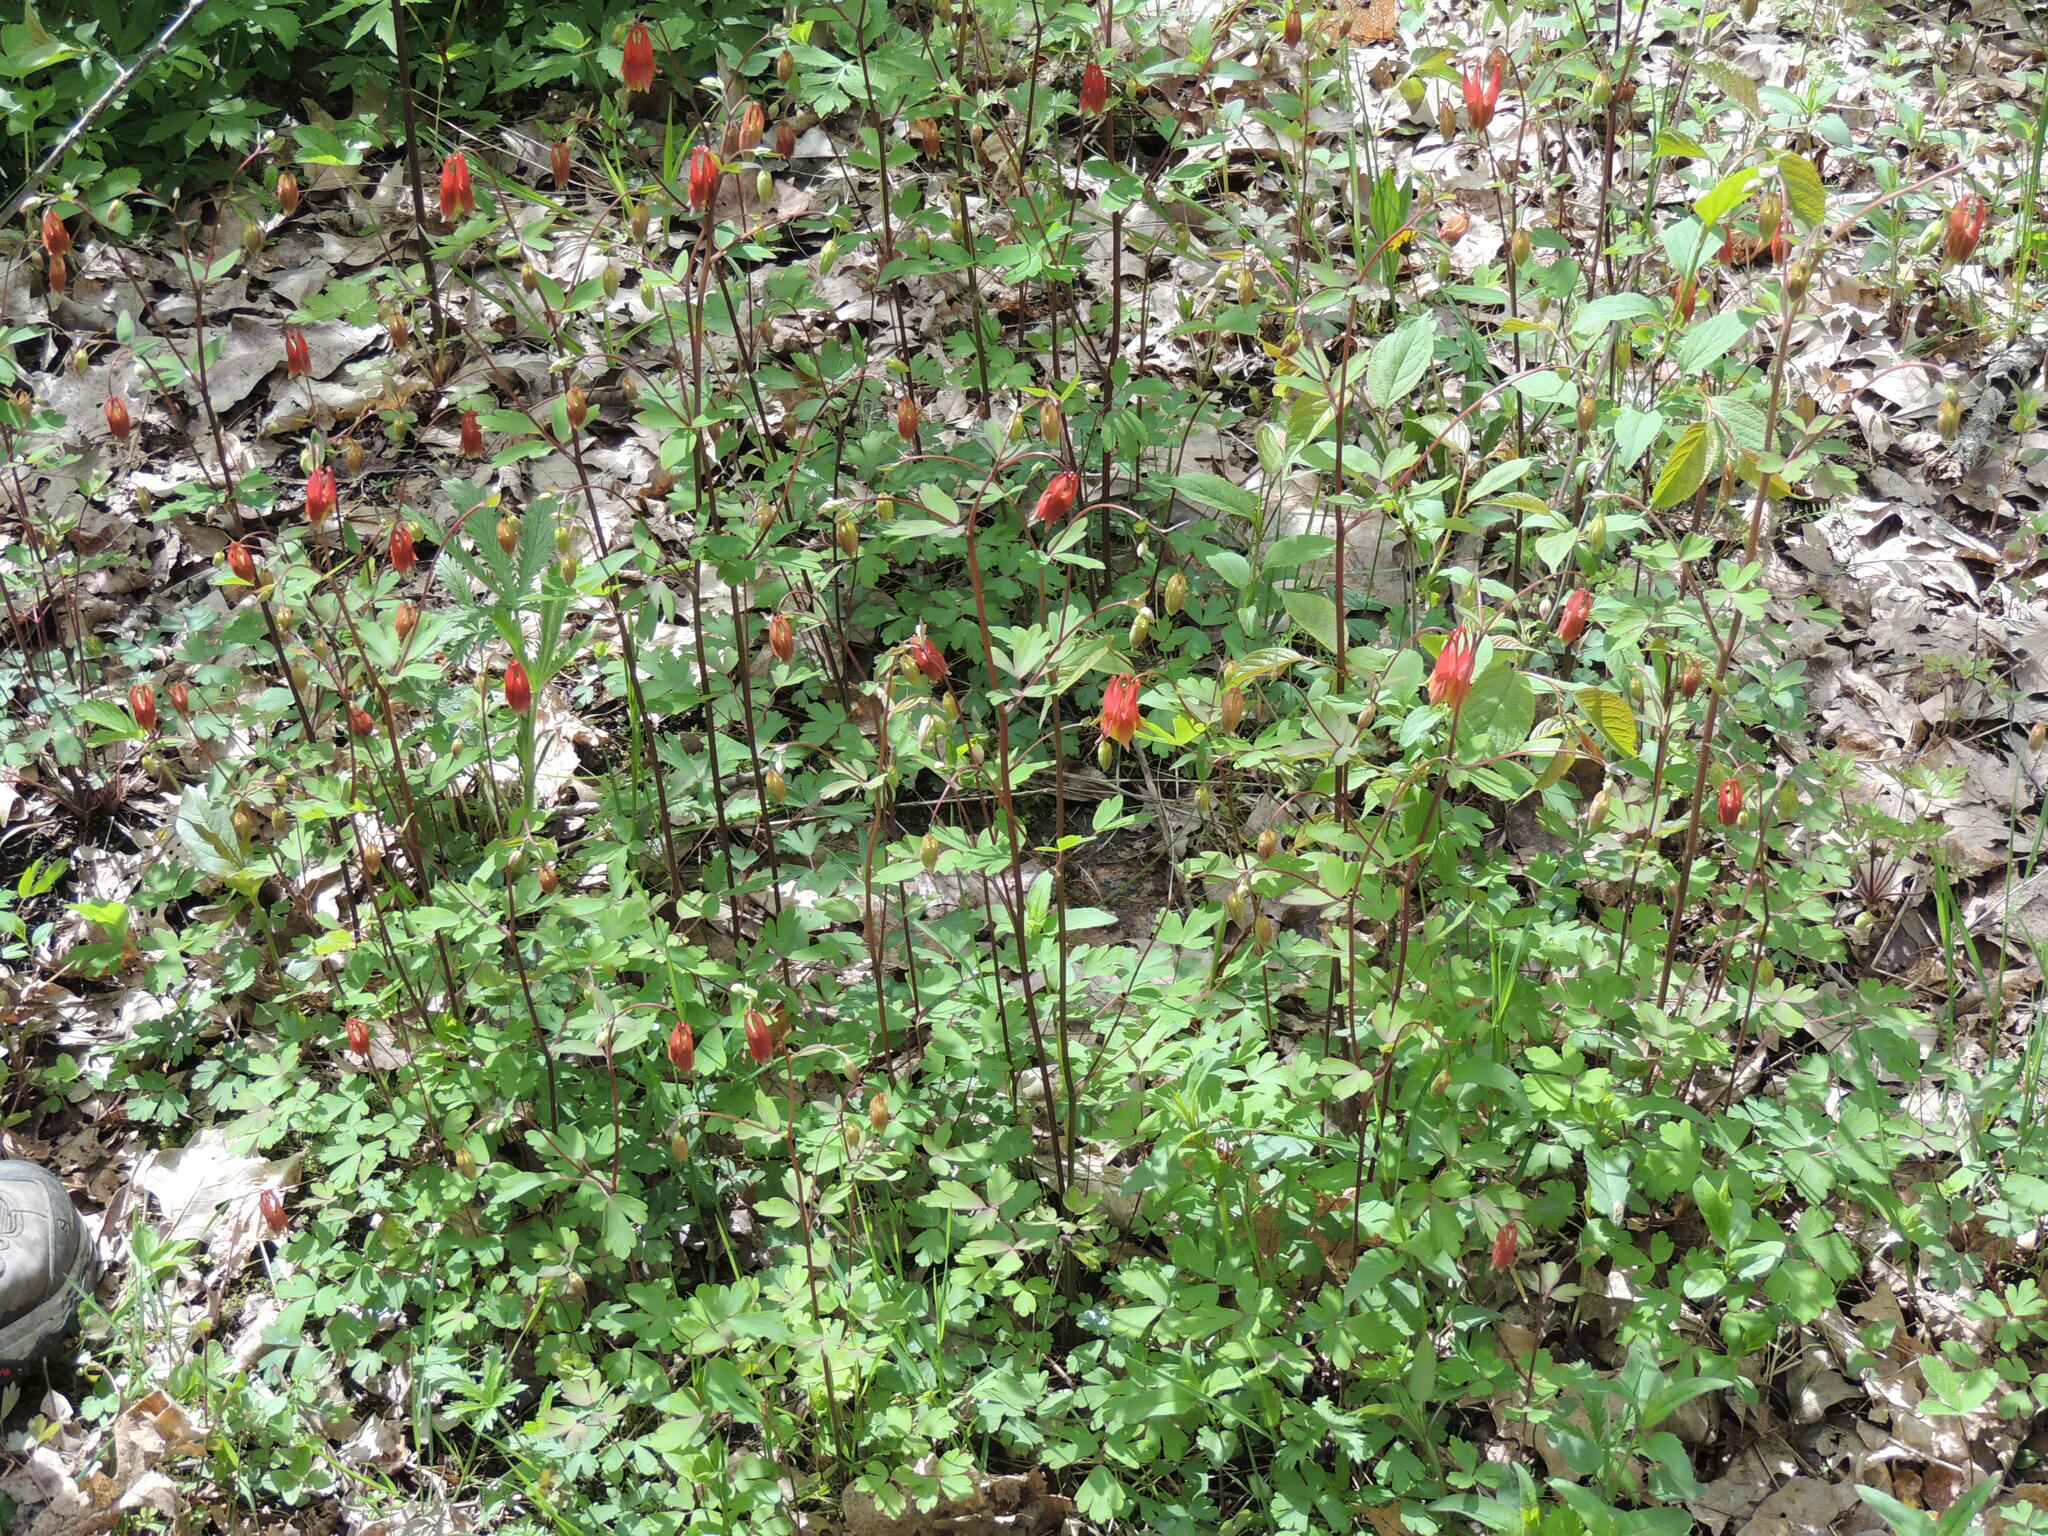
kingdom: Plantae
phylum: Tracheophyta
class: Magnoliopsida
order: Ranunculales
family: Ranunculaceae
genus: Aquilegia
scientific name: Aquilegia canadensis
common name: American columbine
